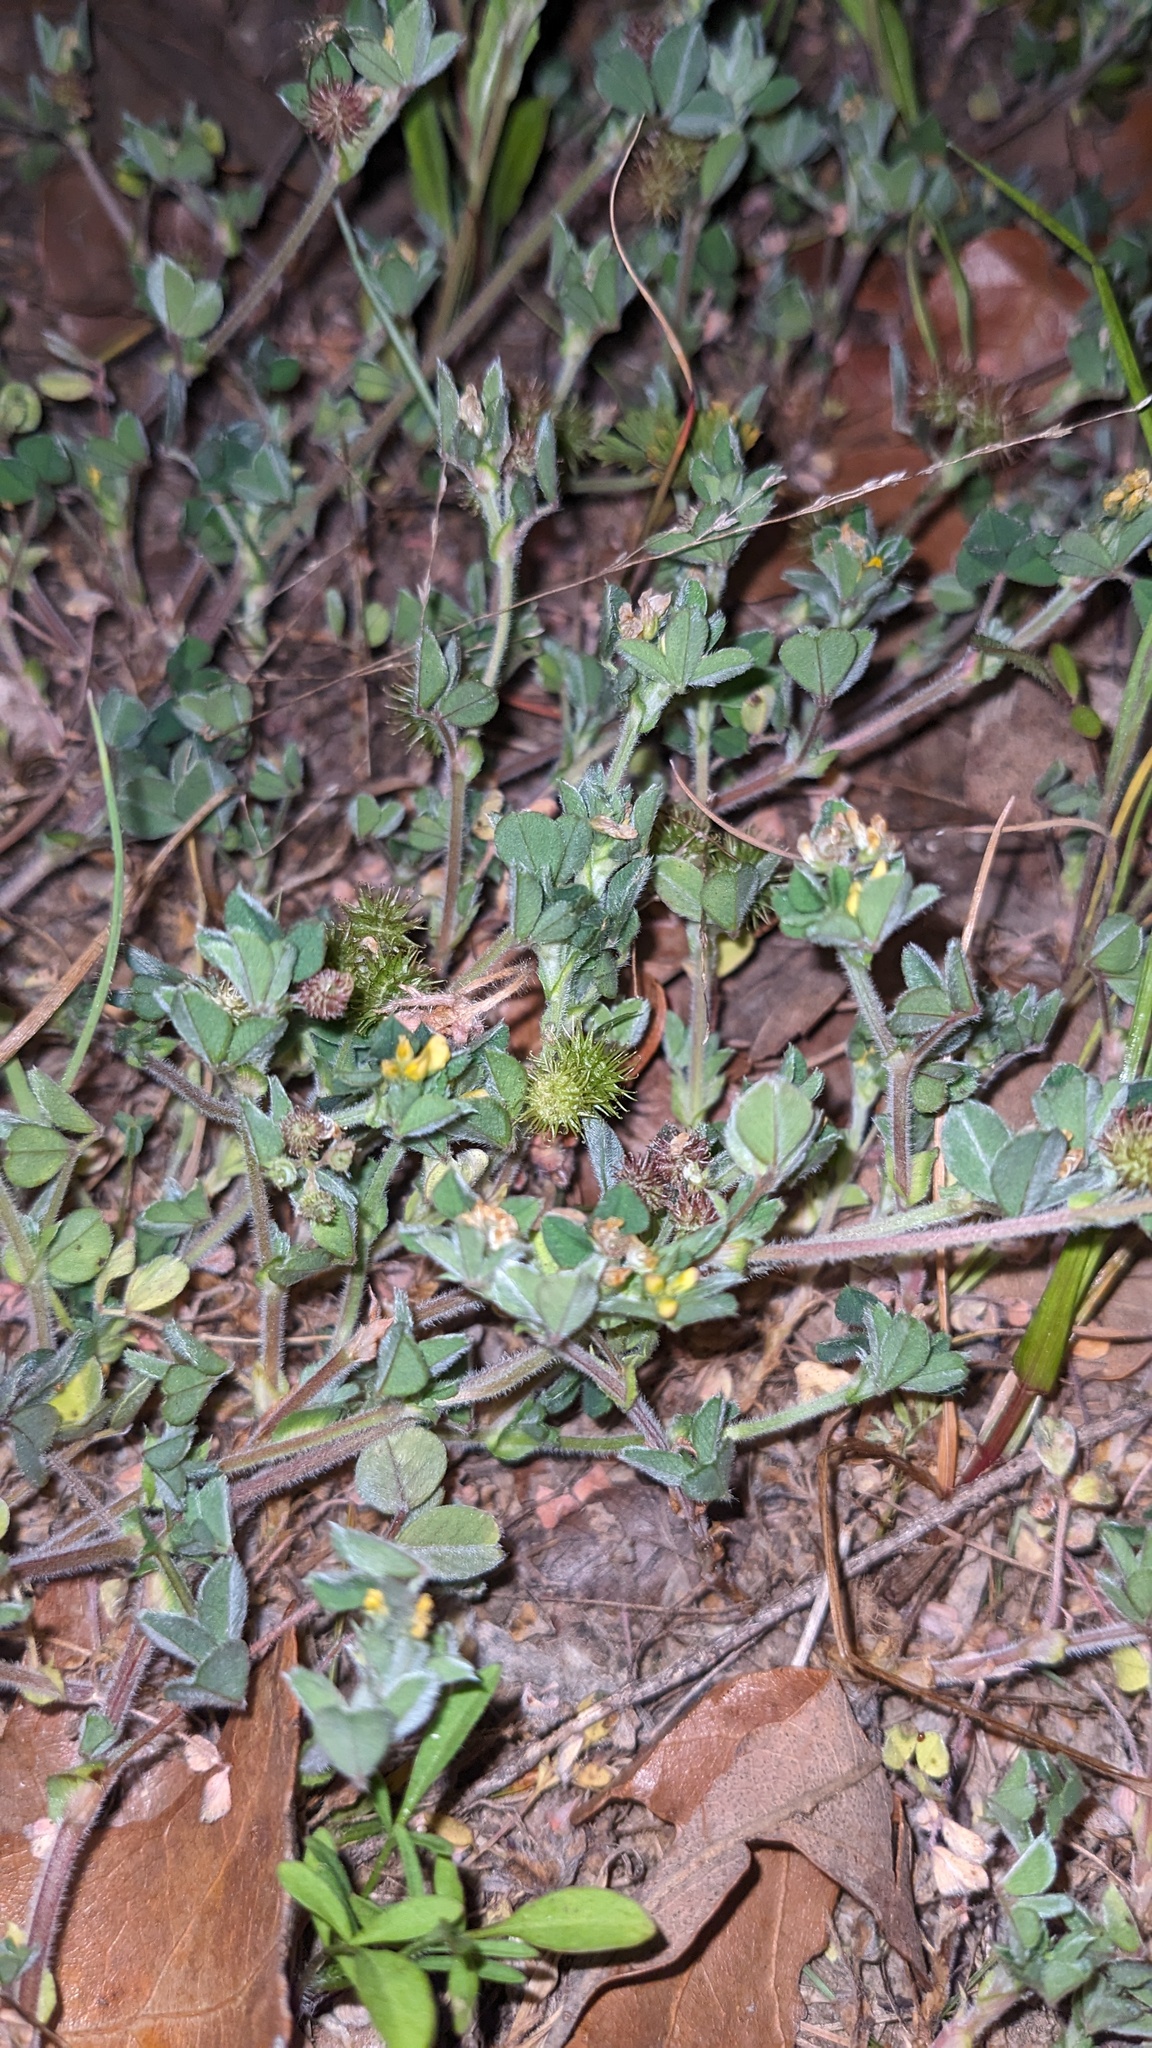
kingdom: Plantae
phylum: Tracheophyta
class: Magnoliopsida
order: Fabales
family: Fabaceae
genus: Medicago
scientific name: Medicago minima
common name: Little bur-clover
